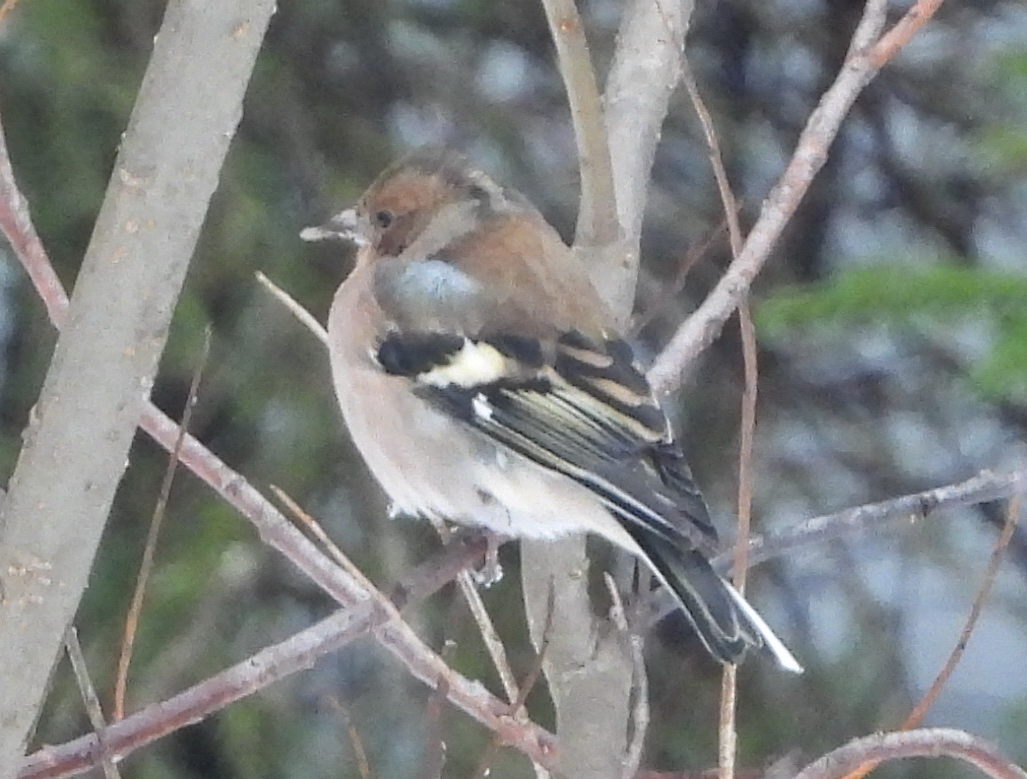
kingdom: Animalia
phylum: Chordata
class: Aves
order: Passeriformes
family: Fringillidae
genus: Fringilla
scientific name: Fringilla coelebs
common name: Common chaffinch
